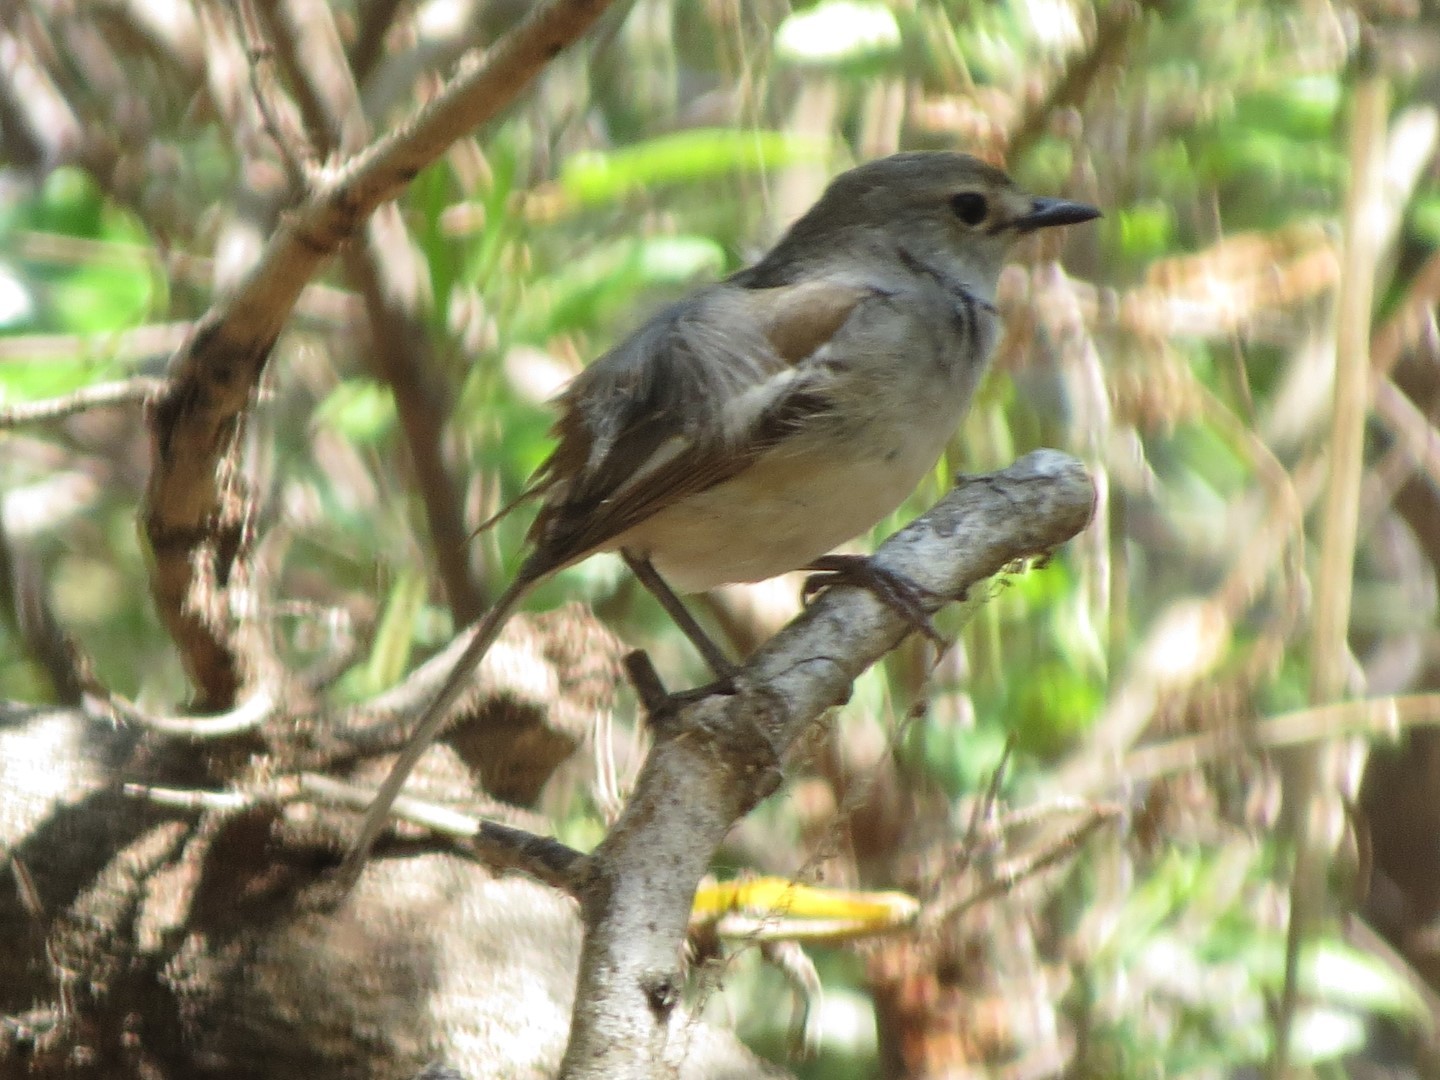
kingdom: Animalia
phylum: Chordata
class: Aves
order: Passeriformes
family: Muscicapidae
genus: Copsychus
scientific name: Copsychus albospecularis
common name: Madagascar magpie-robin
